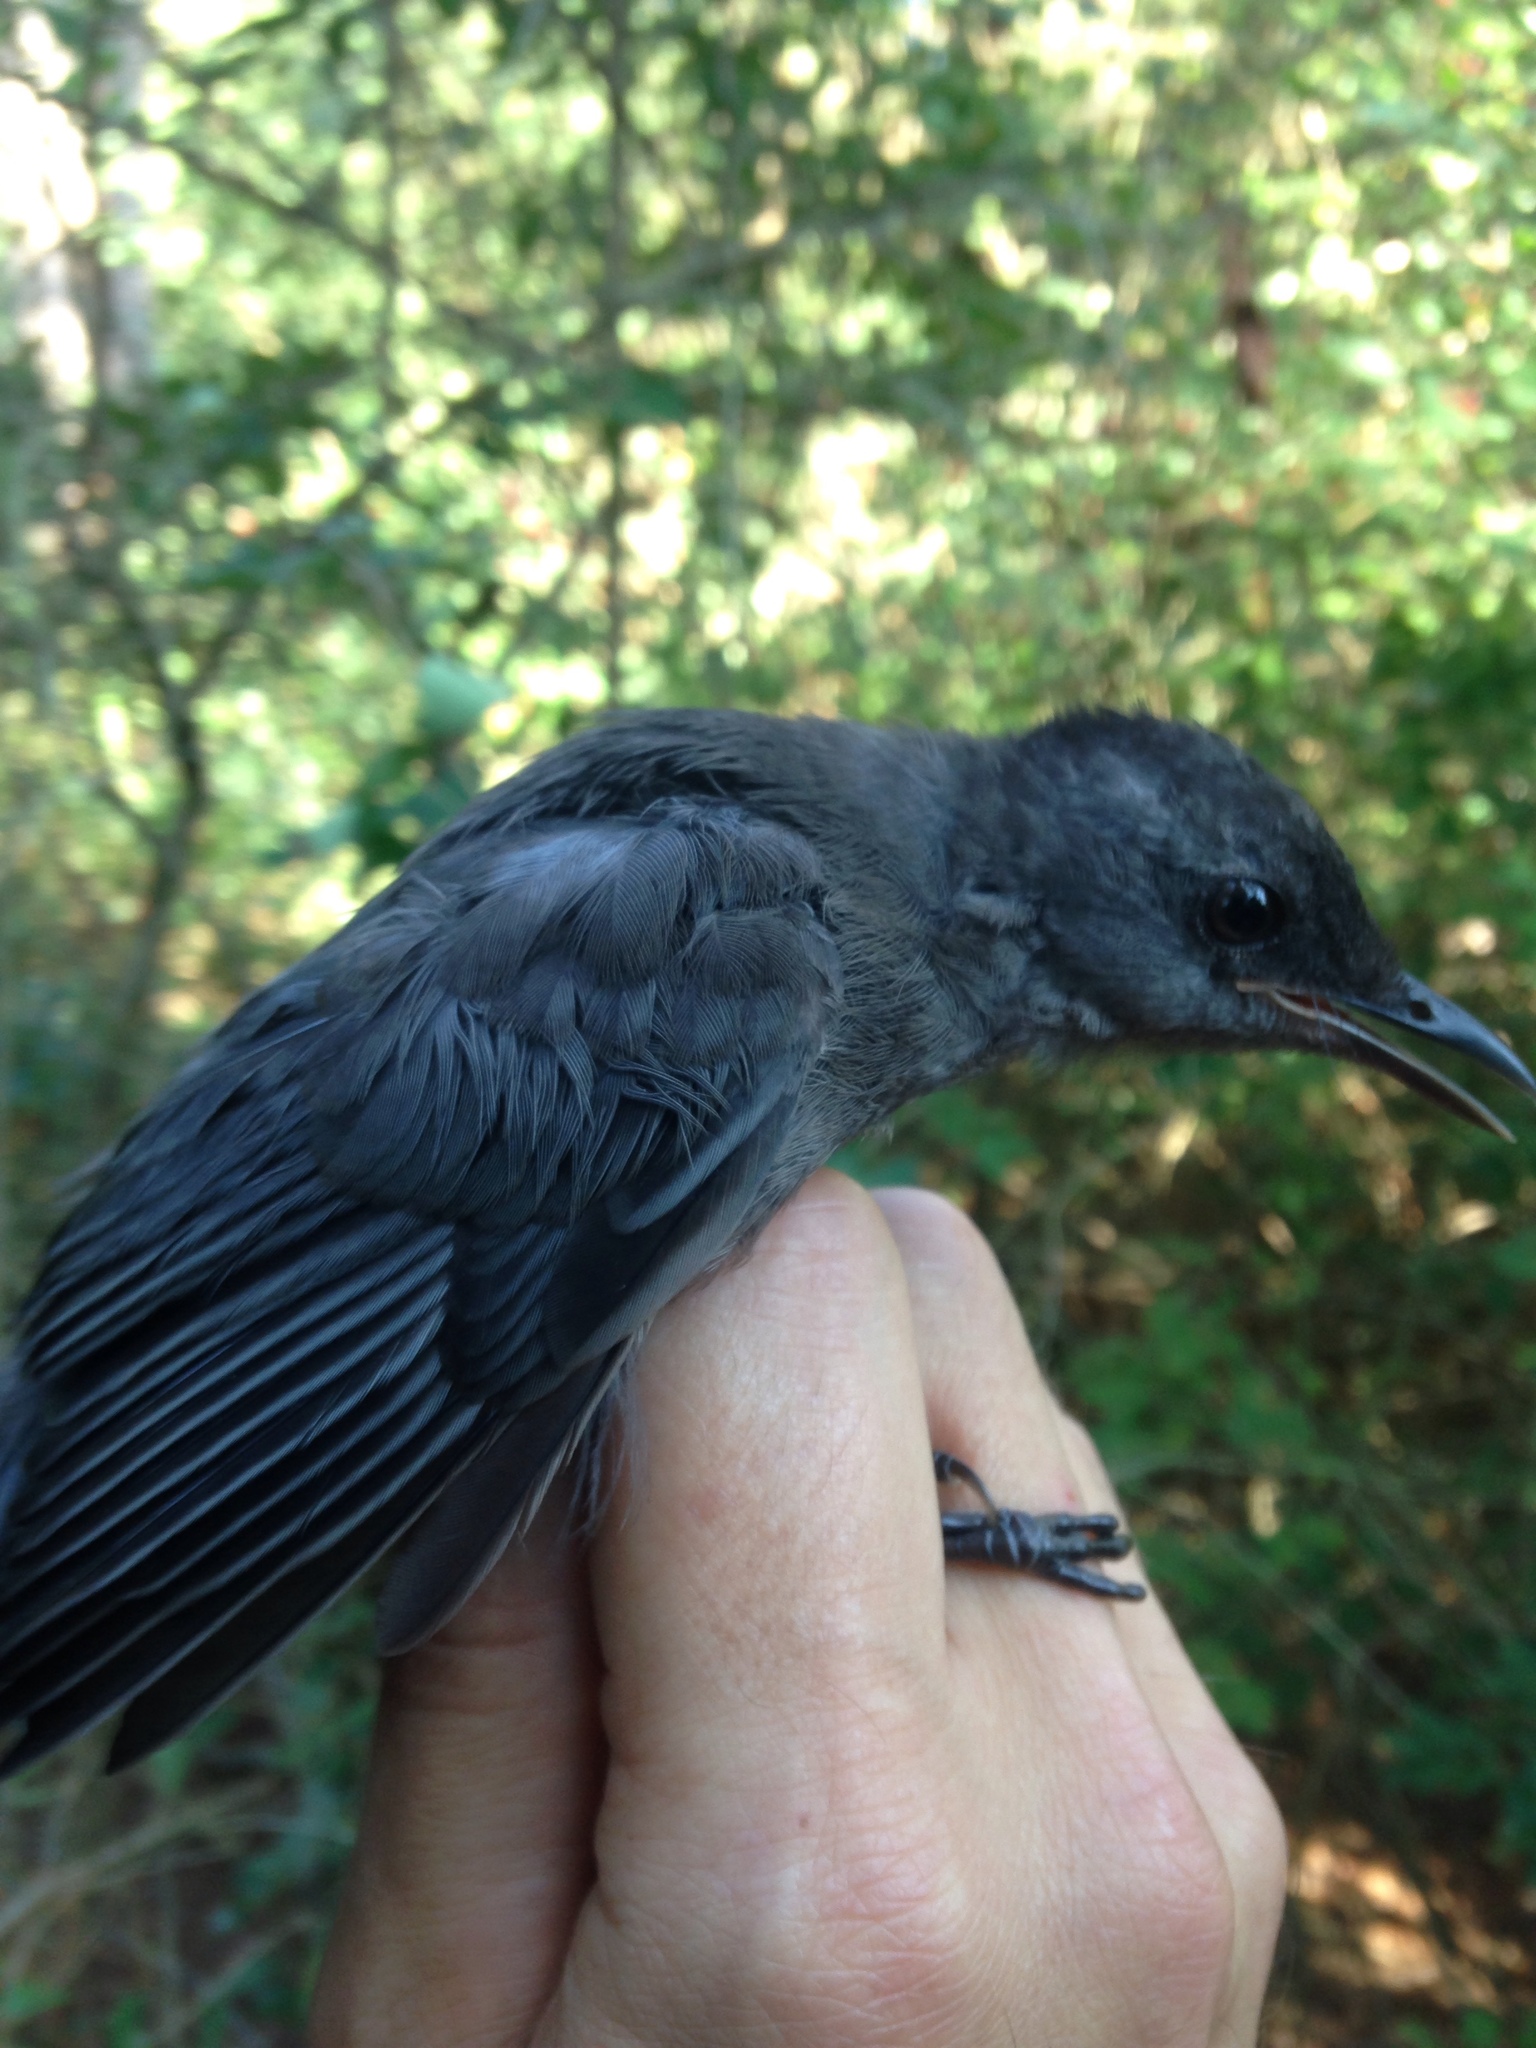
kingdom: Animalia
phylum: Chordata
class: Aves
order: Passeriformes
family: Mimidae
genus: Dumetella
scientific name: Dumetella carolinensis
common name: Gray catbird
